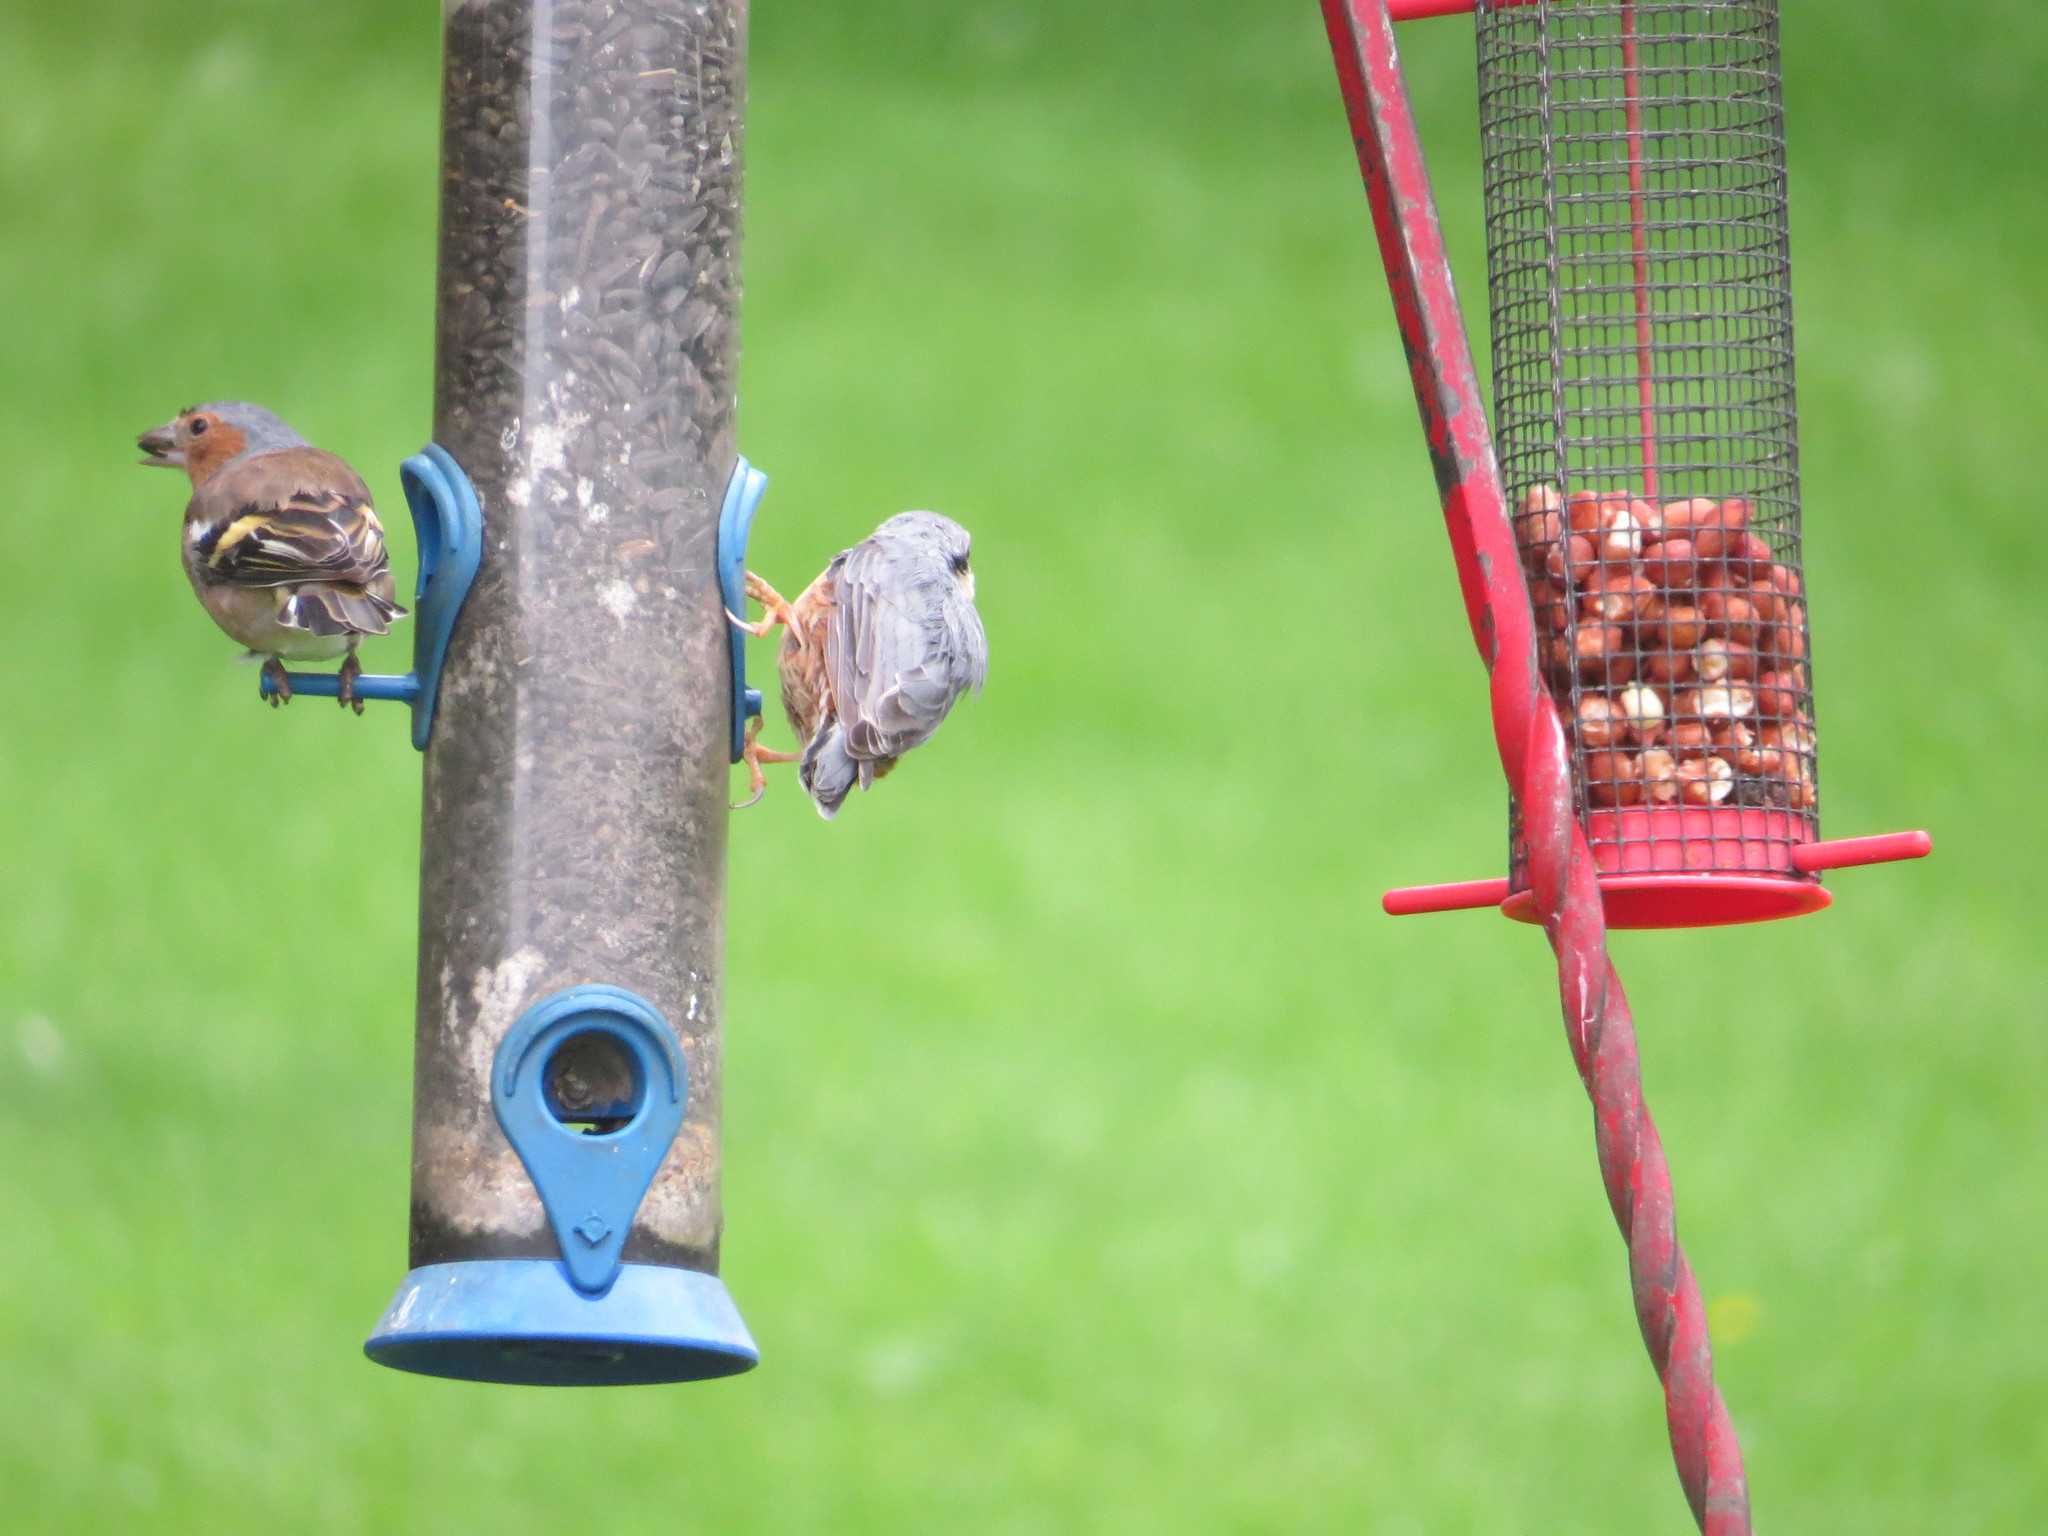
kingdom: Animalia
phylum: Chordata
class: Aves
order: Passeriformes
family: Fringillidae
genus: Fringilla
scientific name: Fringilla coelebs
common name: Common chaffinch
